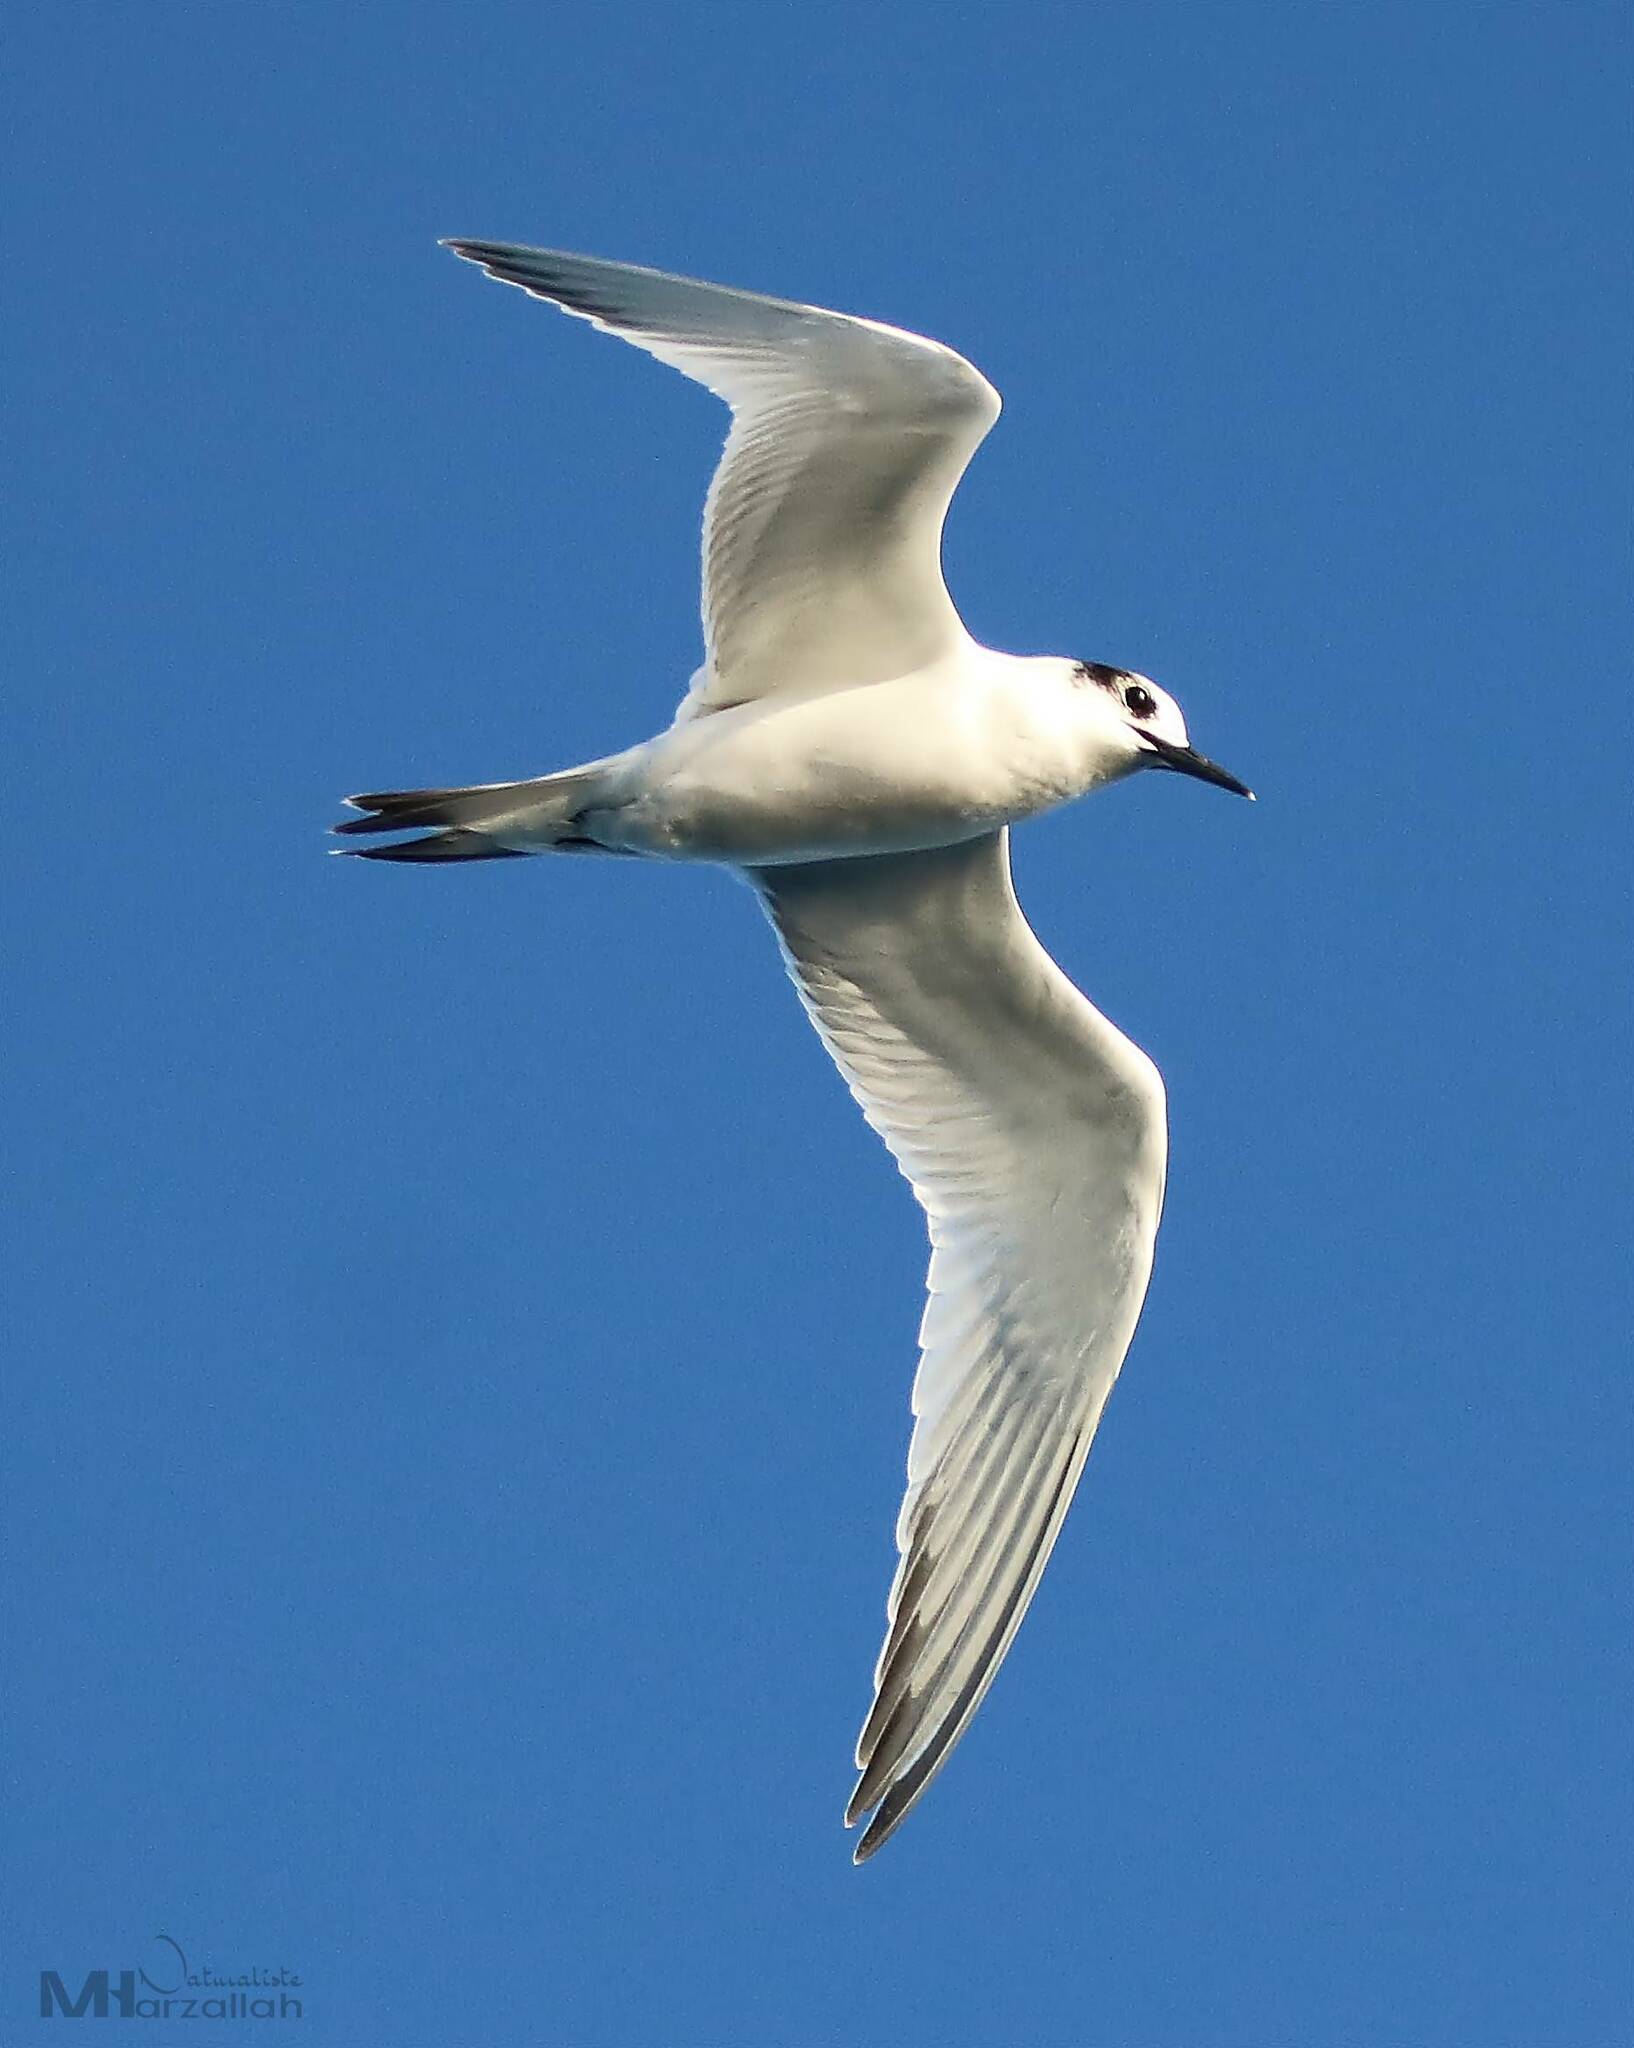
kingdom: Animalia
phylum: Chordata
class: Aves
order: Charadriiformes
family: Laridae
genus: Thalasseus
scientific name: Thalasseus sandvicensis
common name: Sandwich tern
